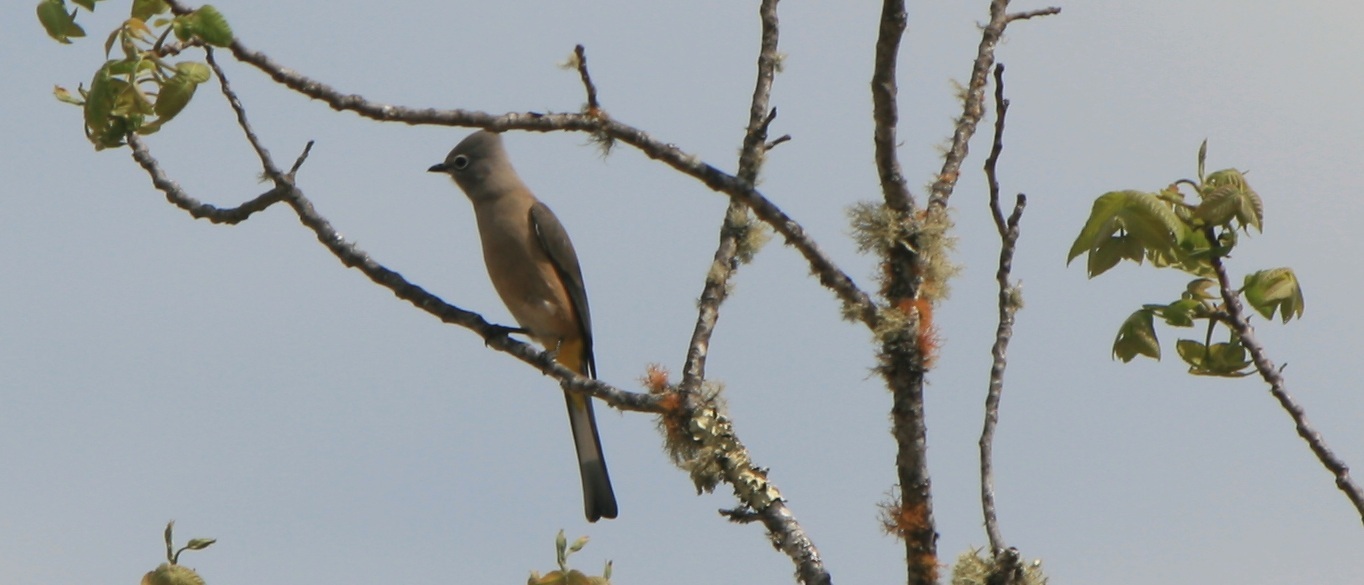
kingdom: Animalia
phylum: Chordata
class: Aves
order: Passeriformes
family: Ptilogonatidae
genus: Ptilogonys
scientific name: Ptilogonys cinereus
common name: Gray silky-flycatcher
